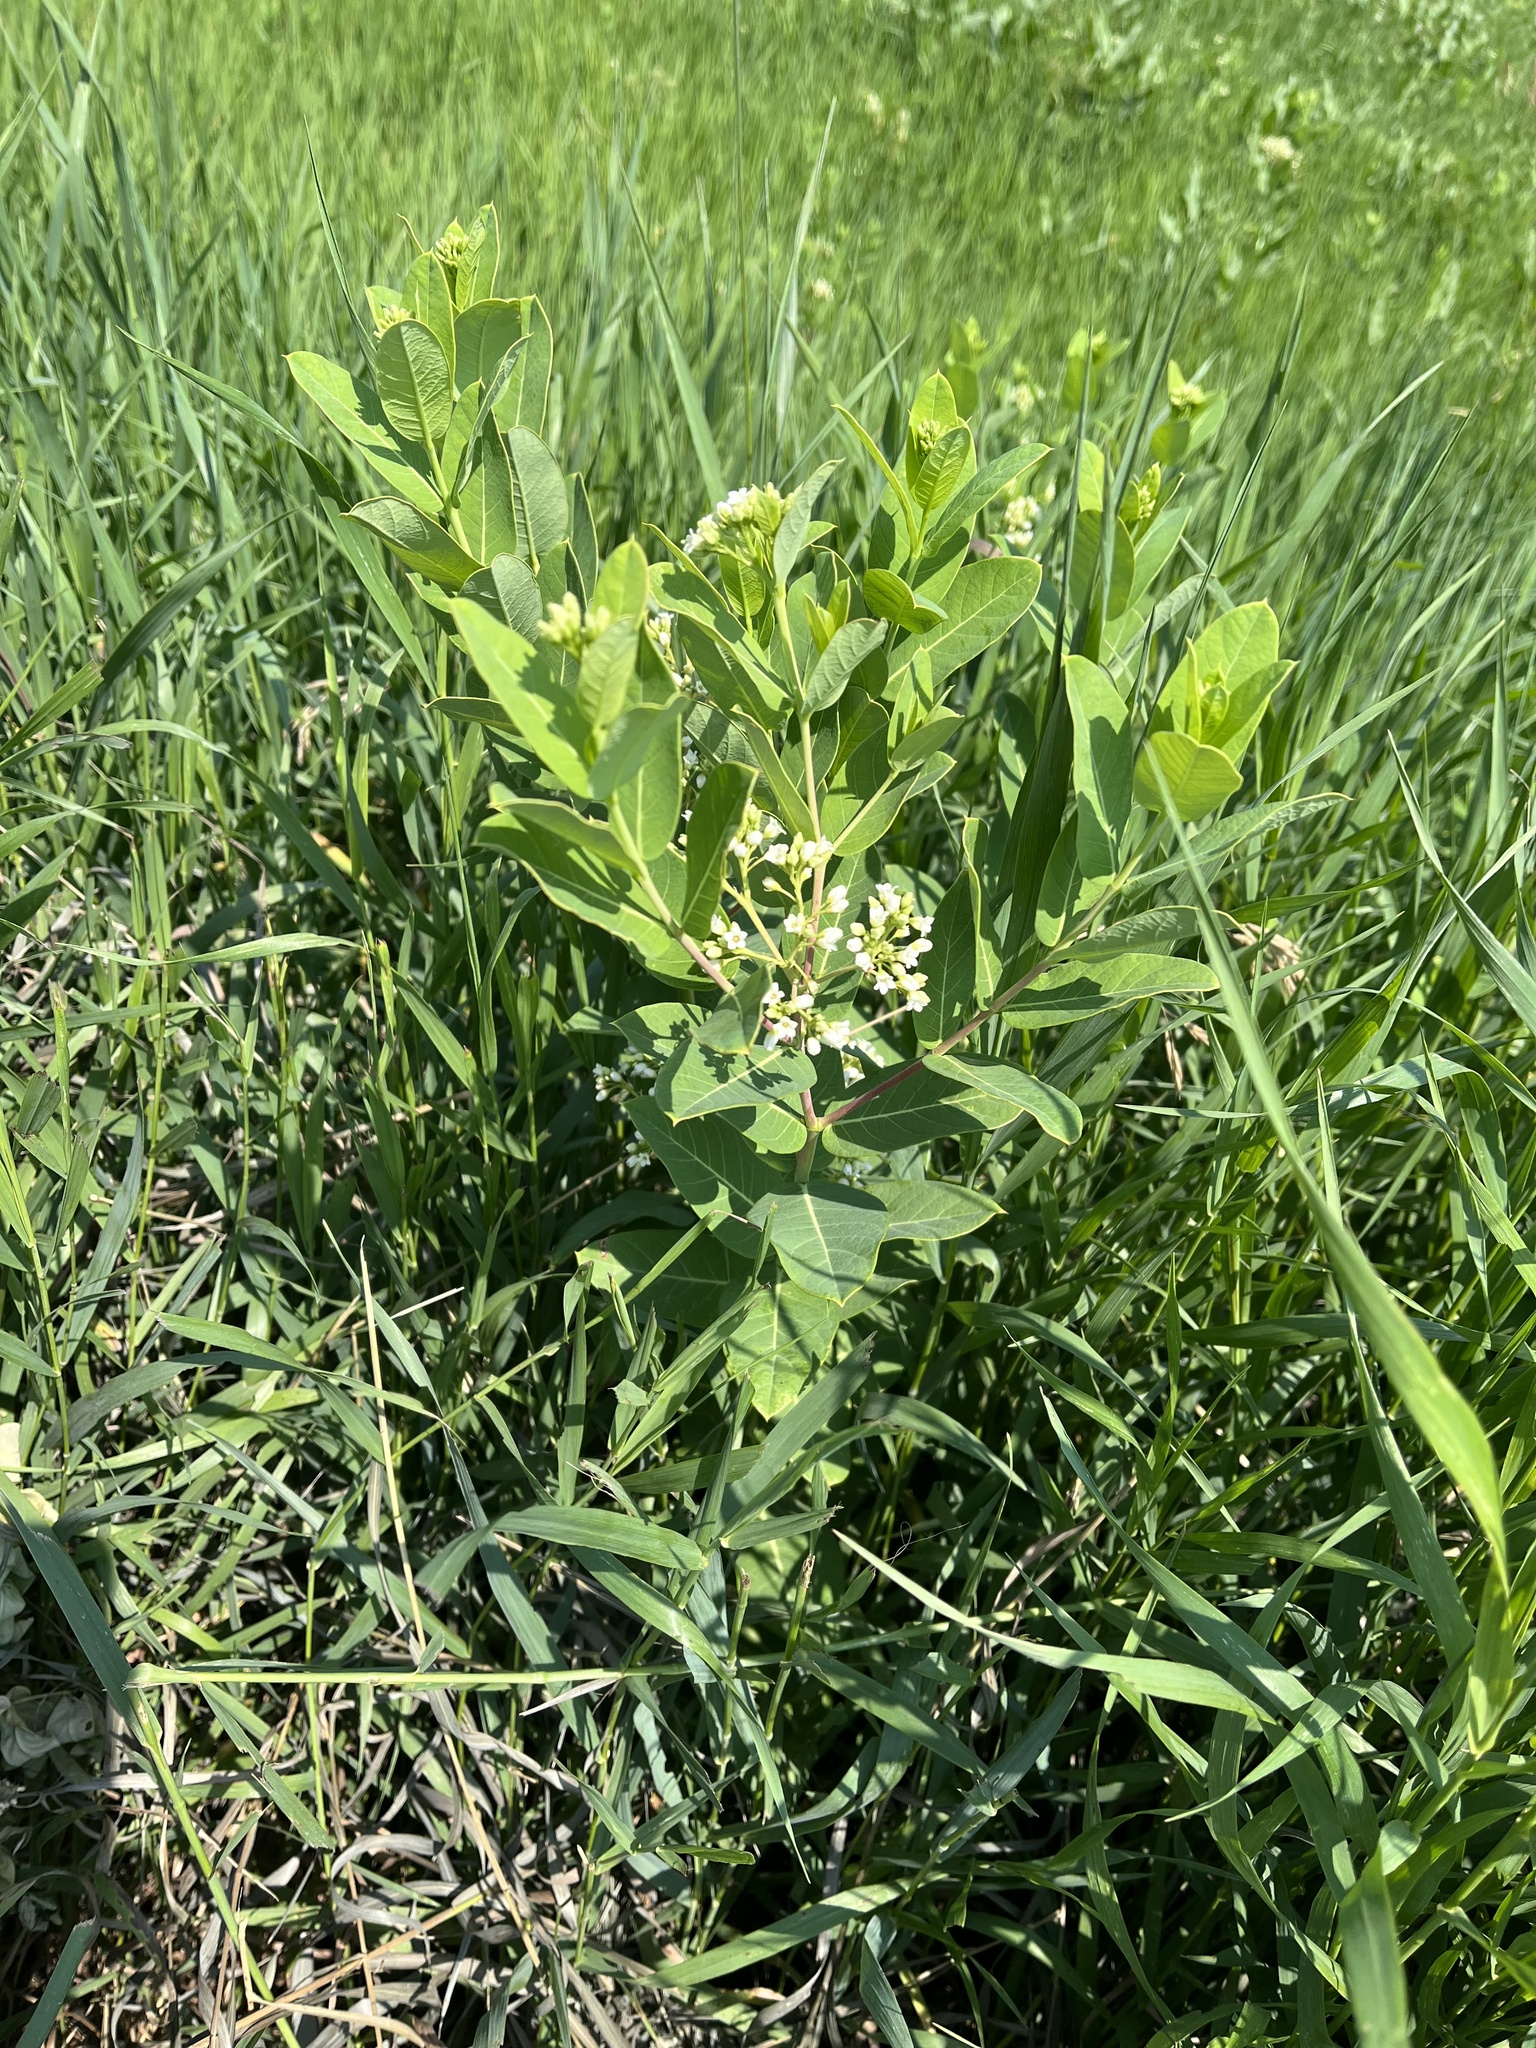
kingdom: Plantae
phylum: Tracheophyta
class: Magnoliopsida
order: Gentianales
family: Apocynaceae
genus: Apocynum
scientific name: Apocynum cannabinum
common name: Hemp dogbane
